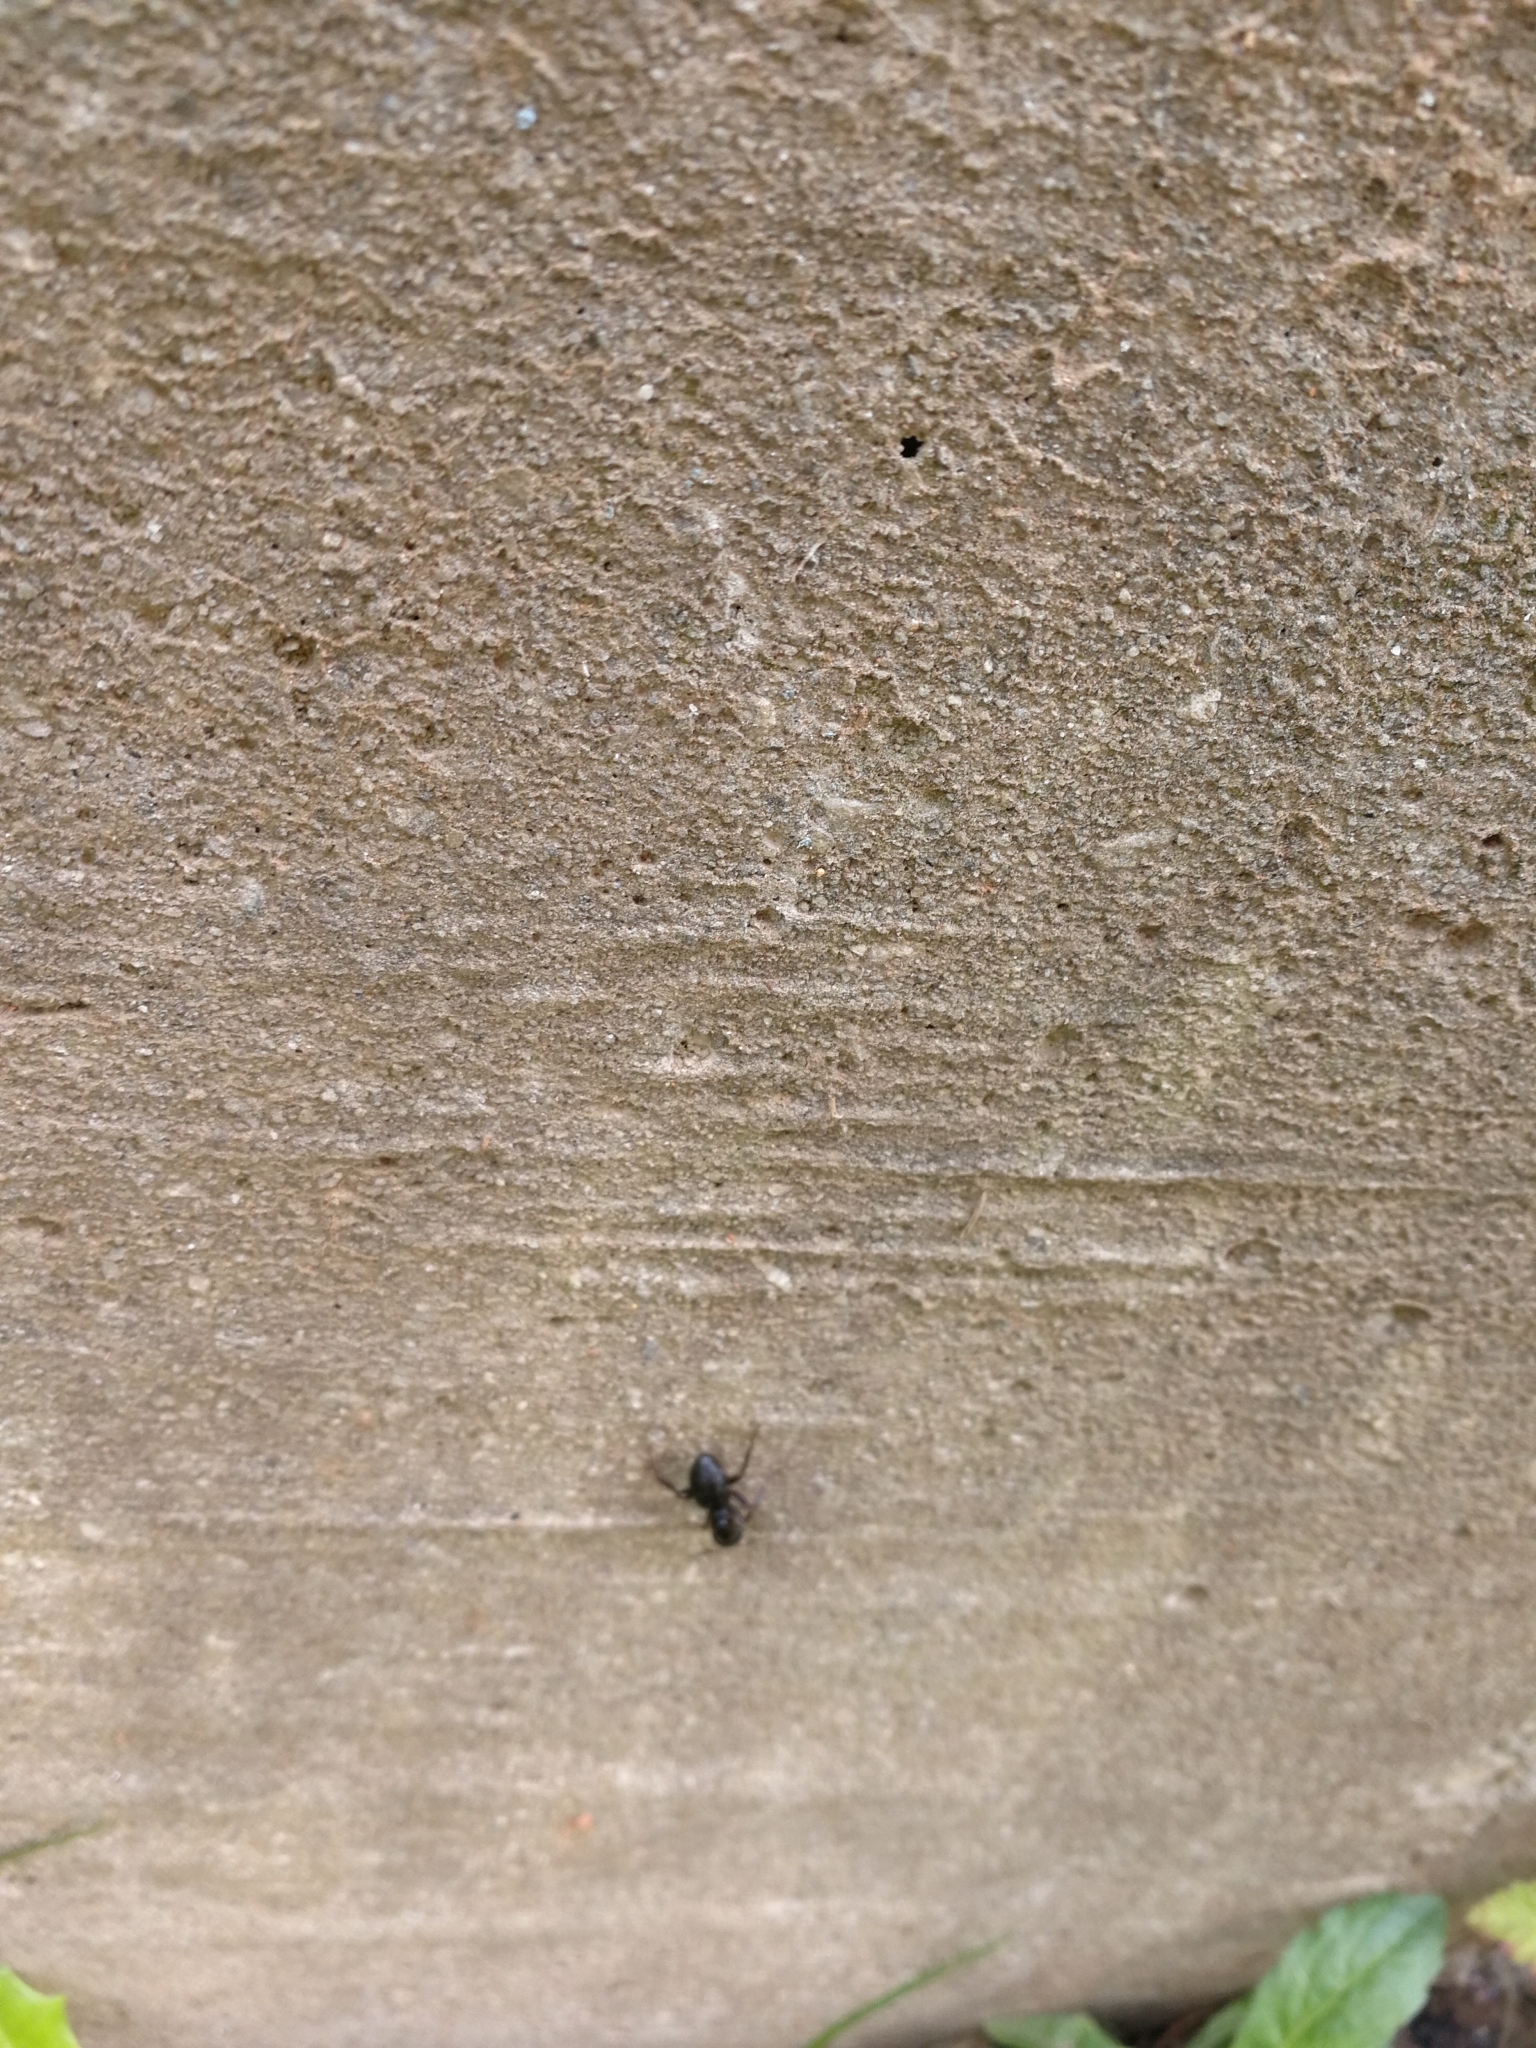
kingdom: Animalia
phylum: Arthropoda
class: Insecta
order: Hymenoptera
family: Formicidae
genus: Camponotus
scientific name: Camponotus pennsylvanicus
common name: Black carpenter ant
